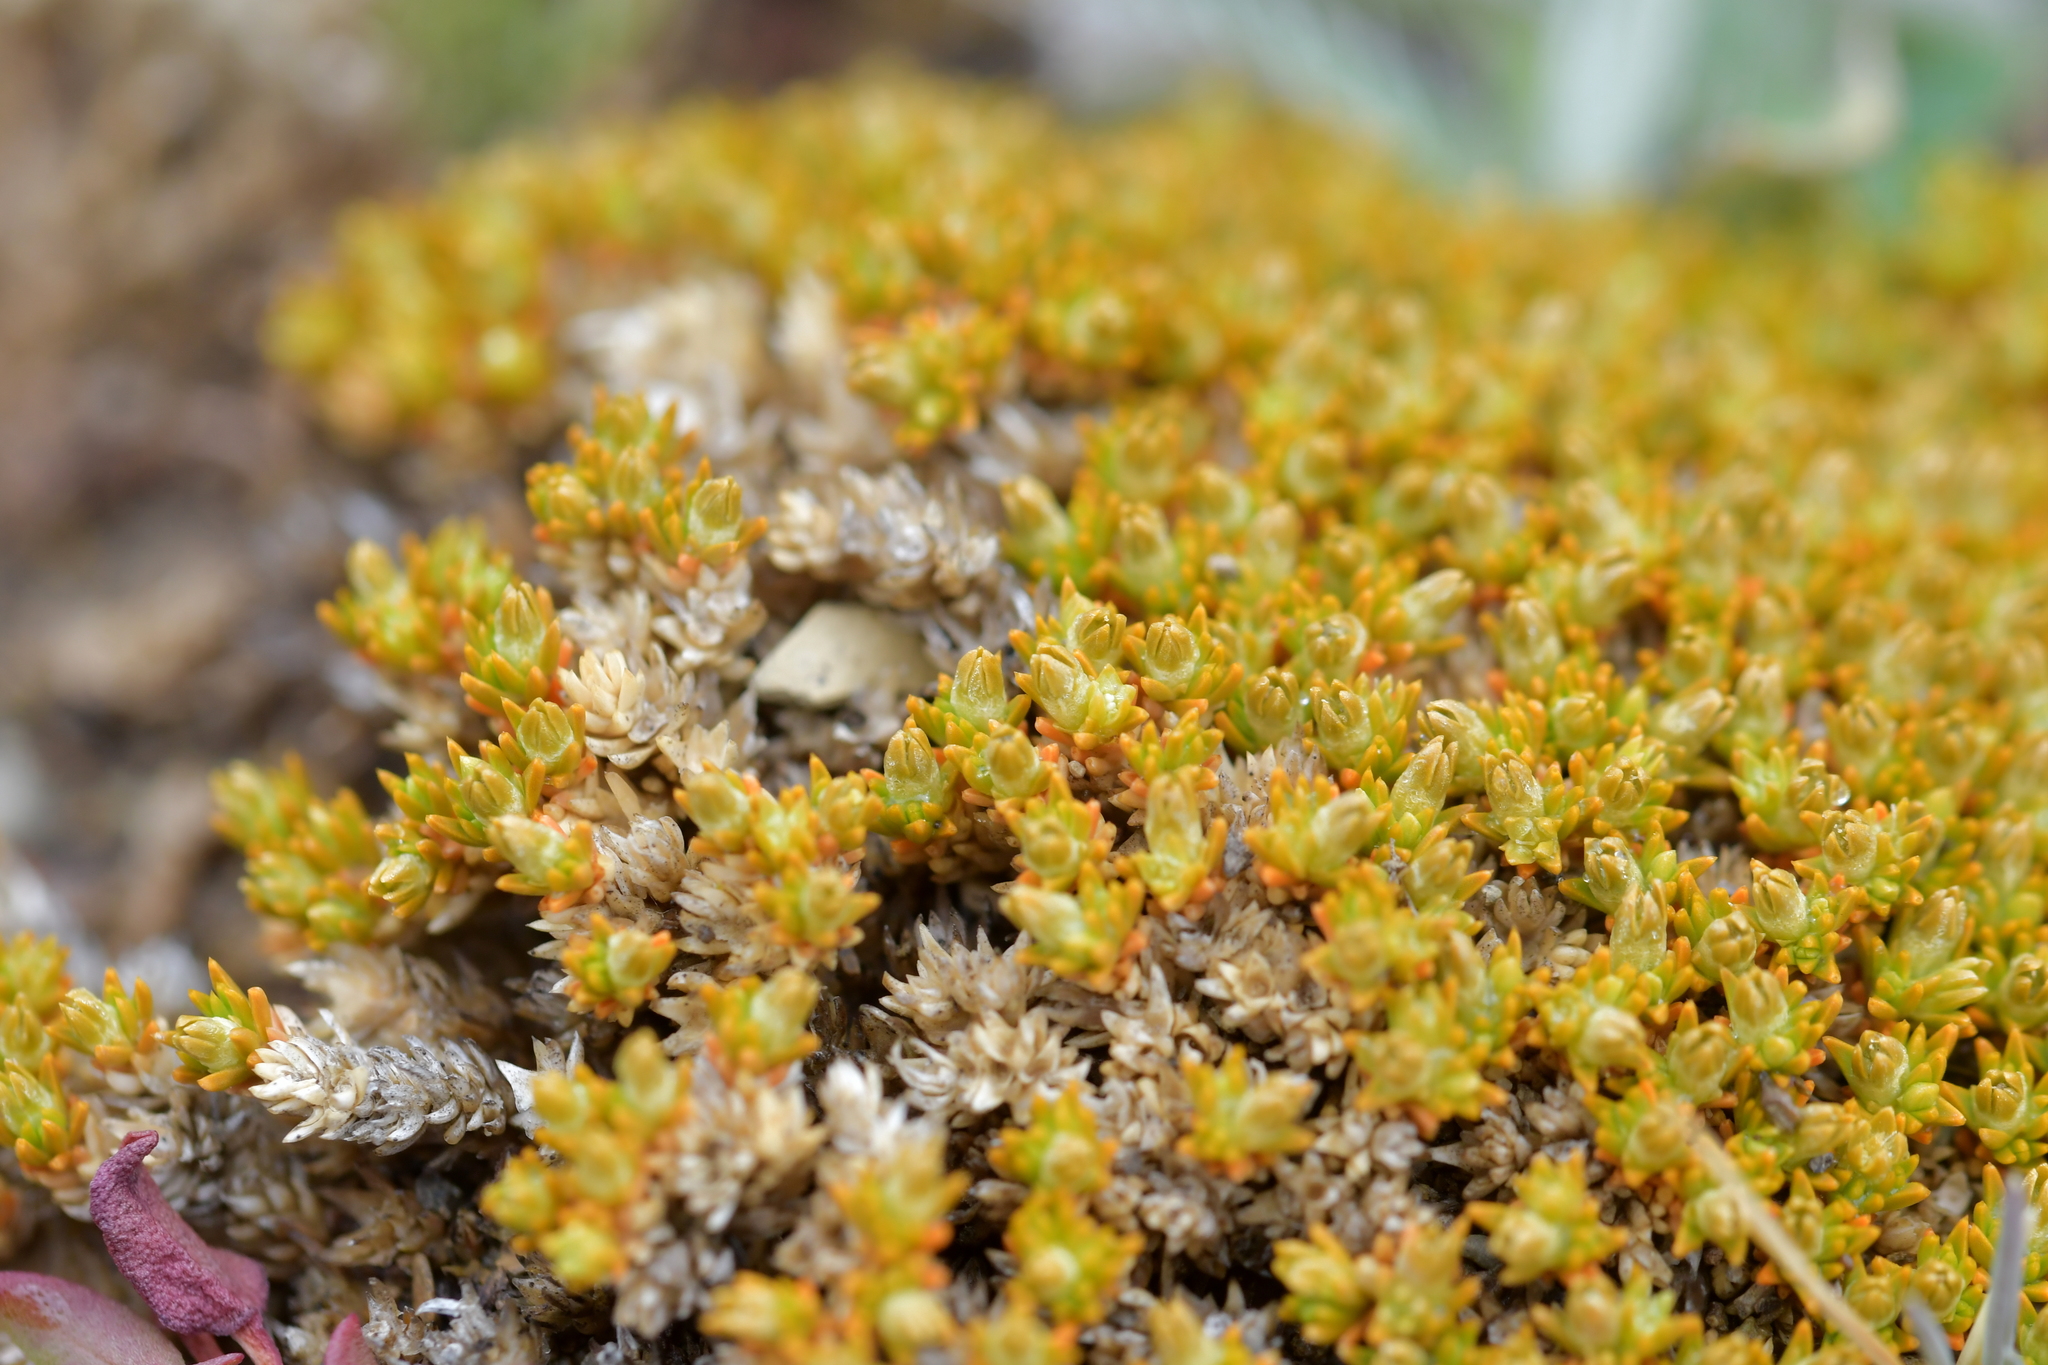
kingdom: Plantae
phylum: Tracheophyta
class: Magnoliopsida
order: Caryophyllales
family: Caryophyllaceae
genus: Scleranthus
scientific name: Scleranthus uniflorus
